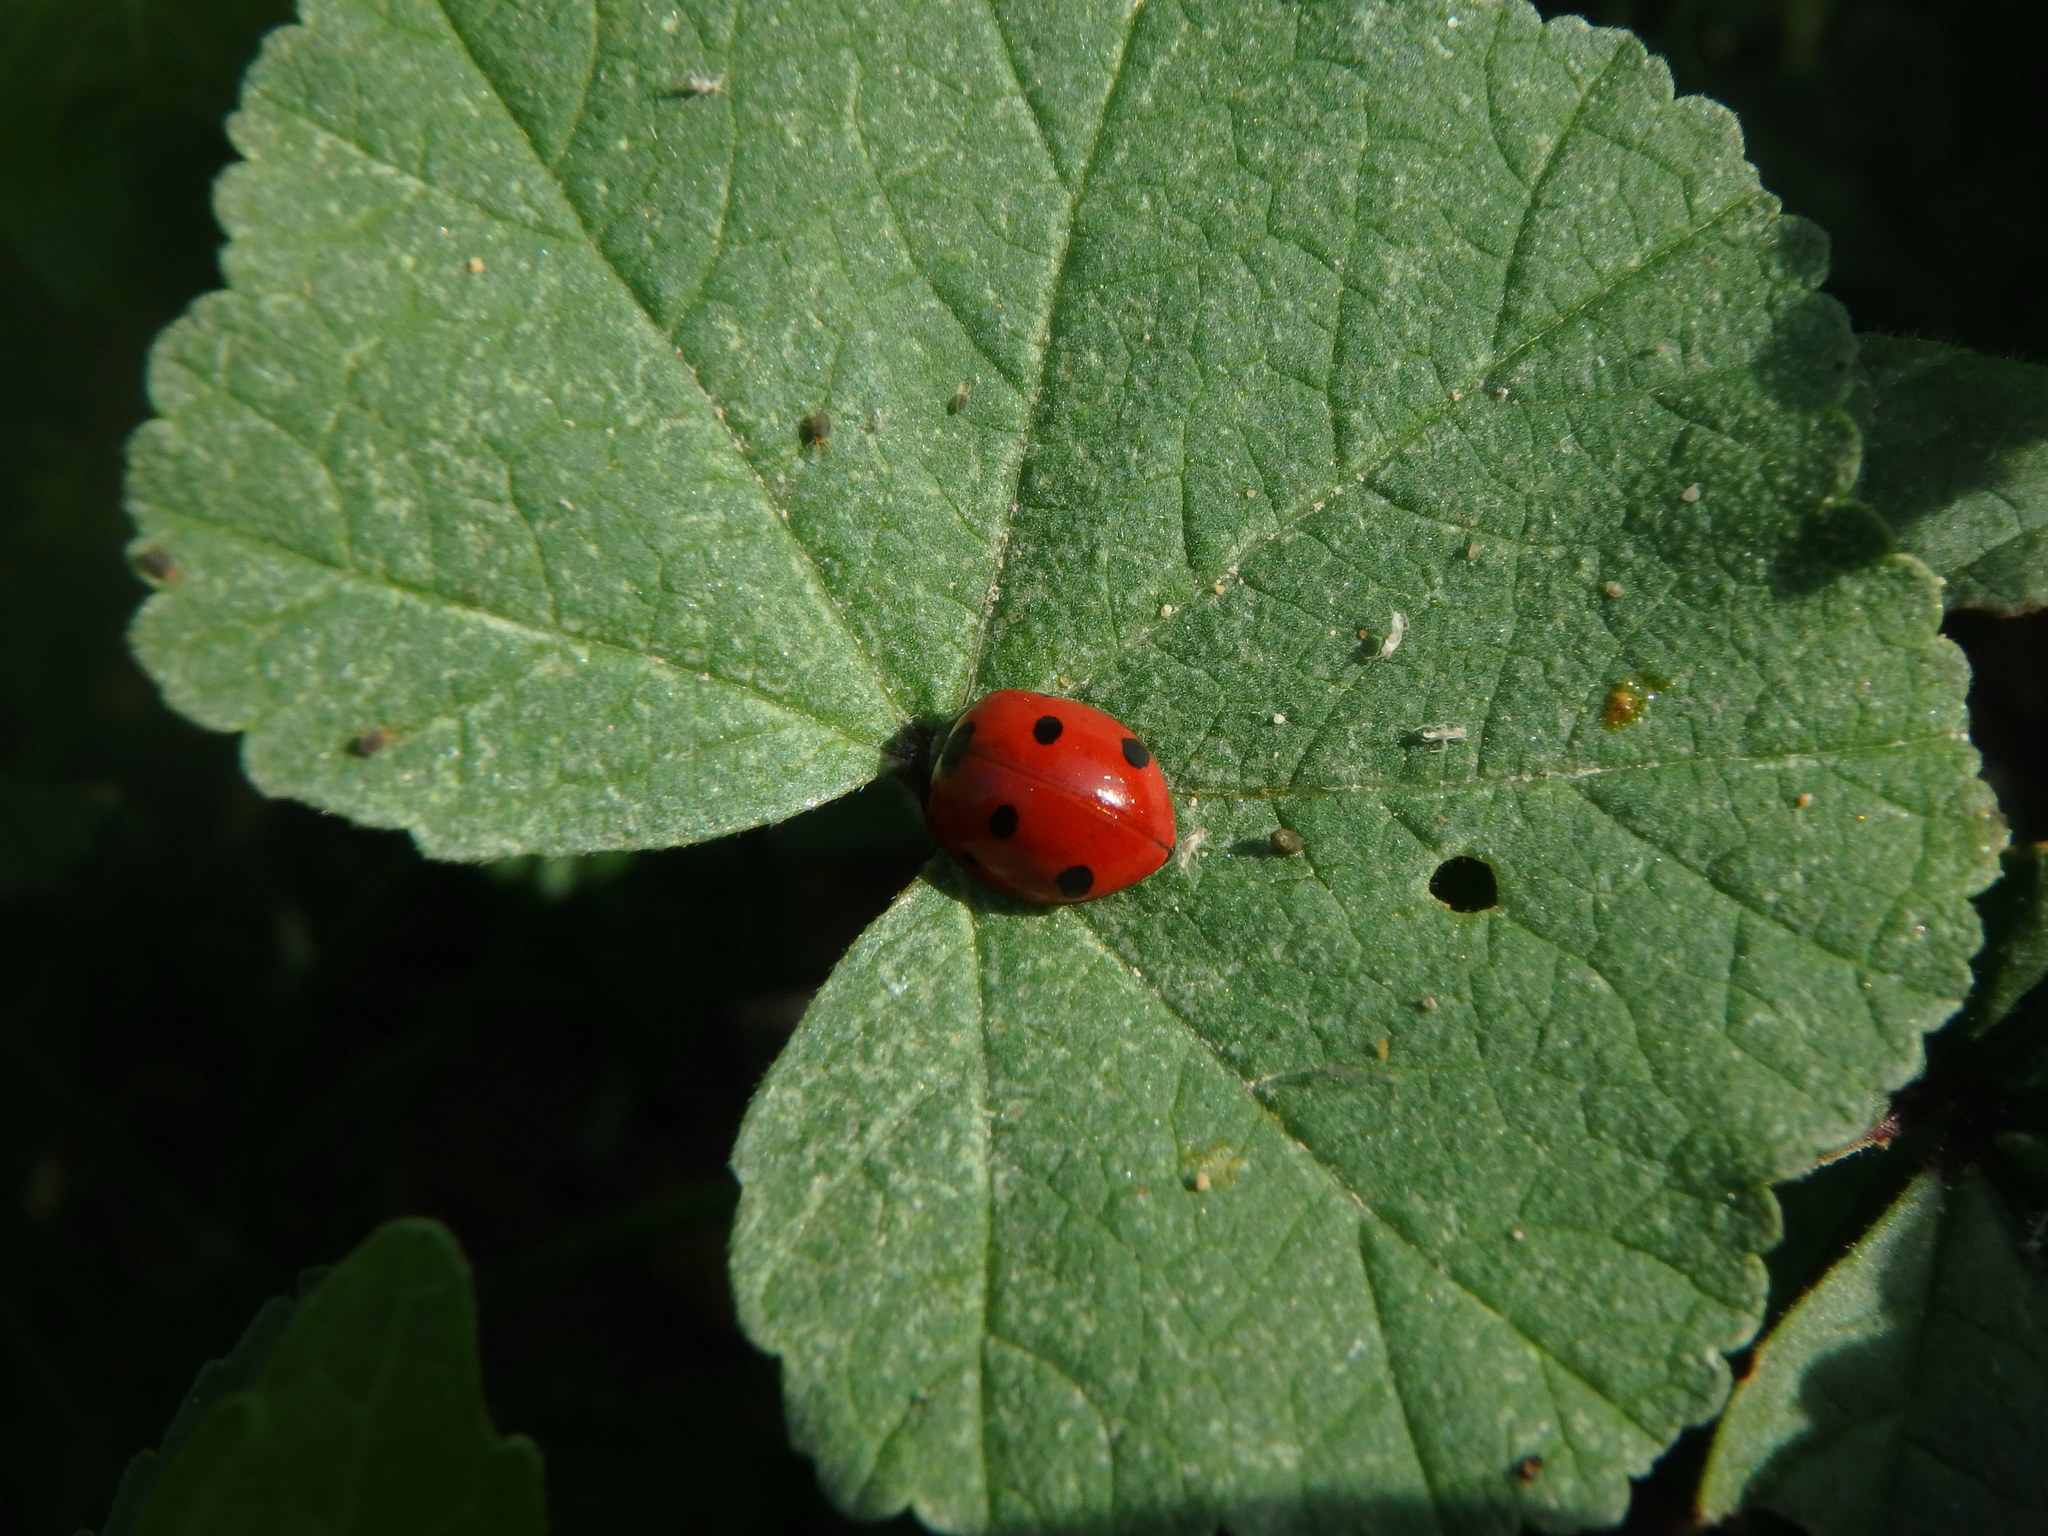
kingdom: Animalia
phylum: Arthropoda
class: Insecta
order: Coleoptera
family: Coccinellidae
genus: Coccinella
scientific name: Coccinella septempunctata
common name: Sevenspotted lady beetle
